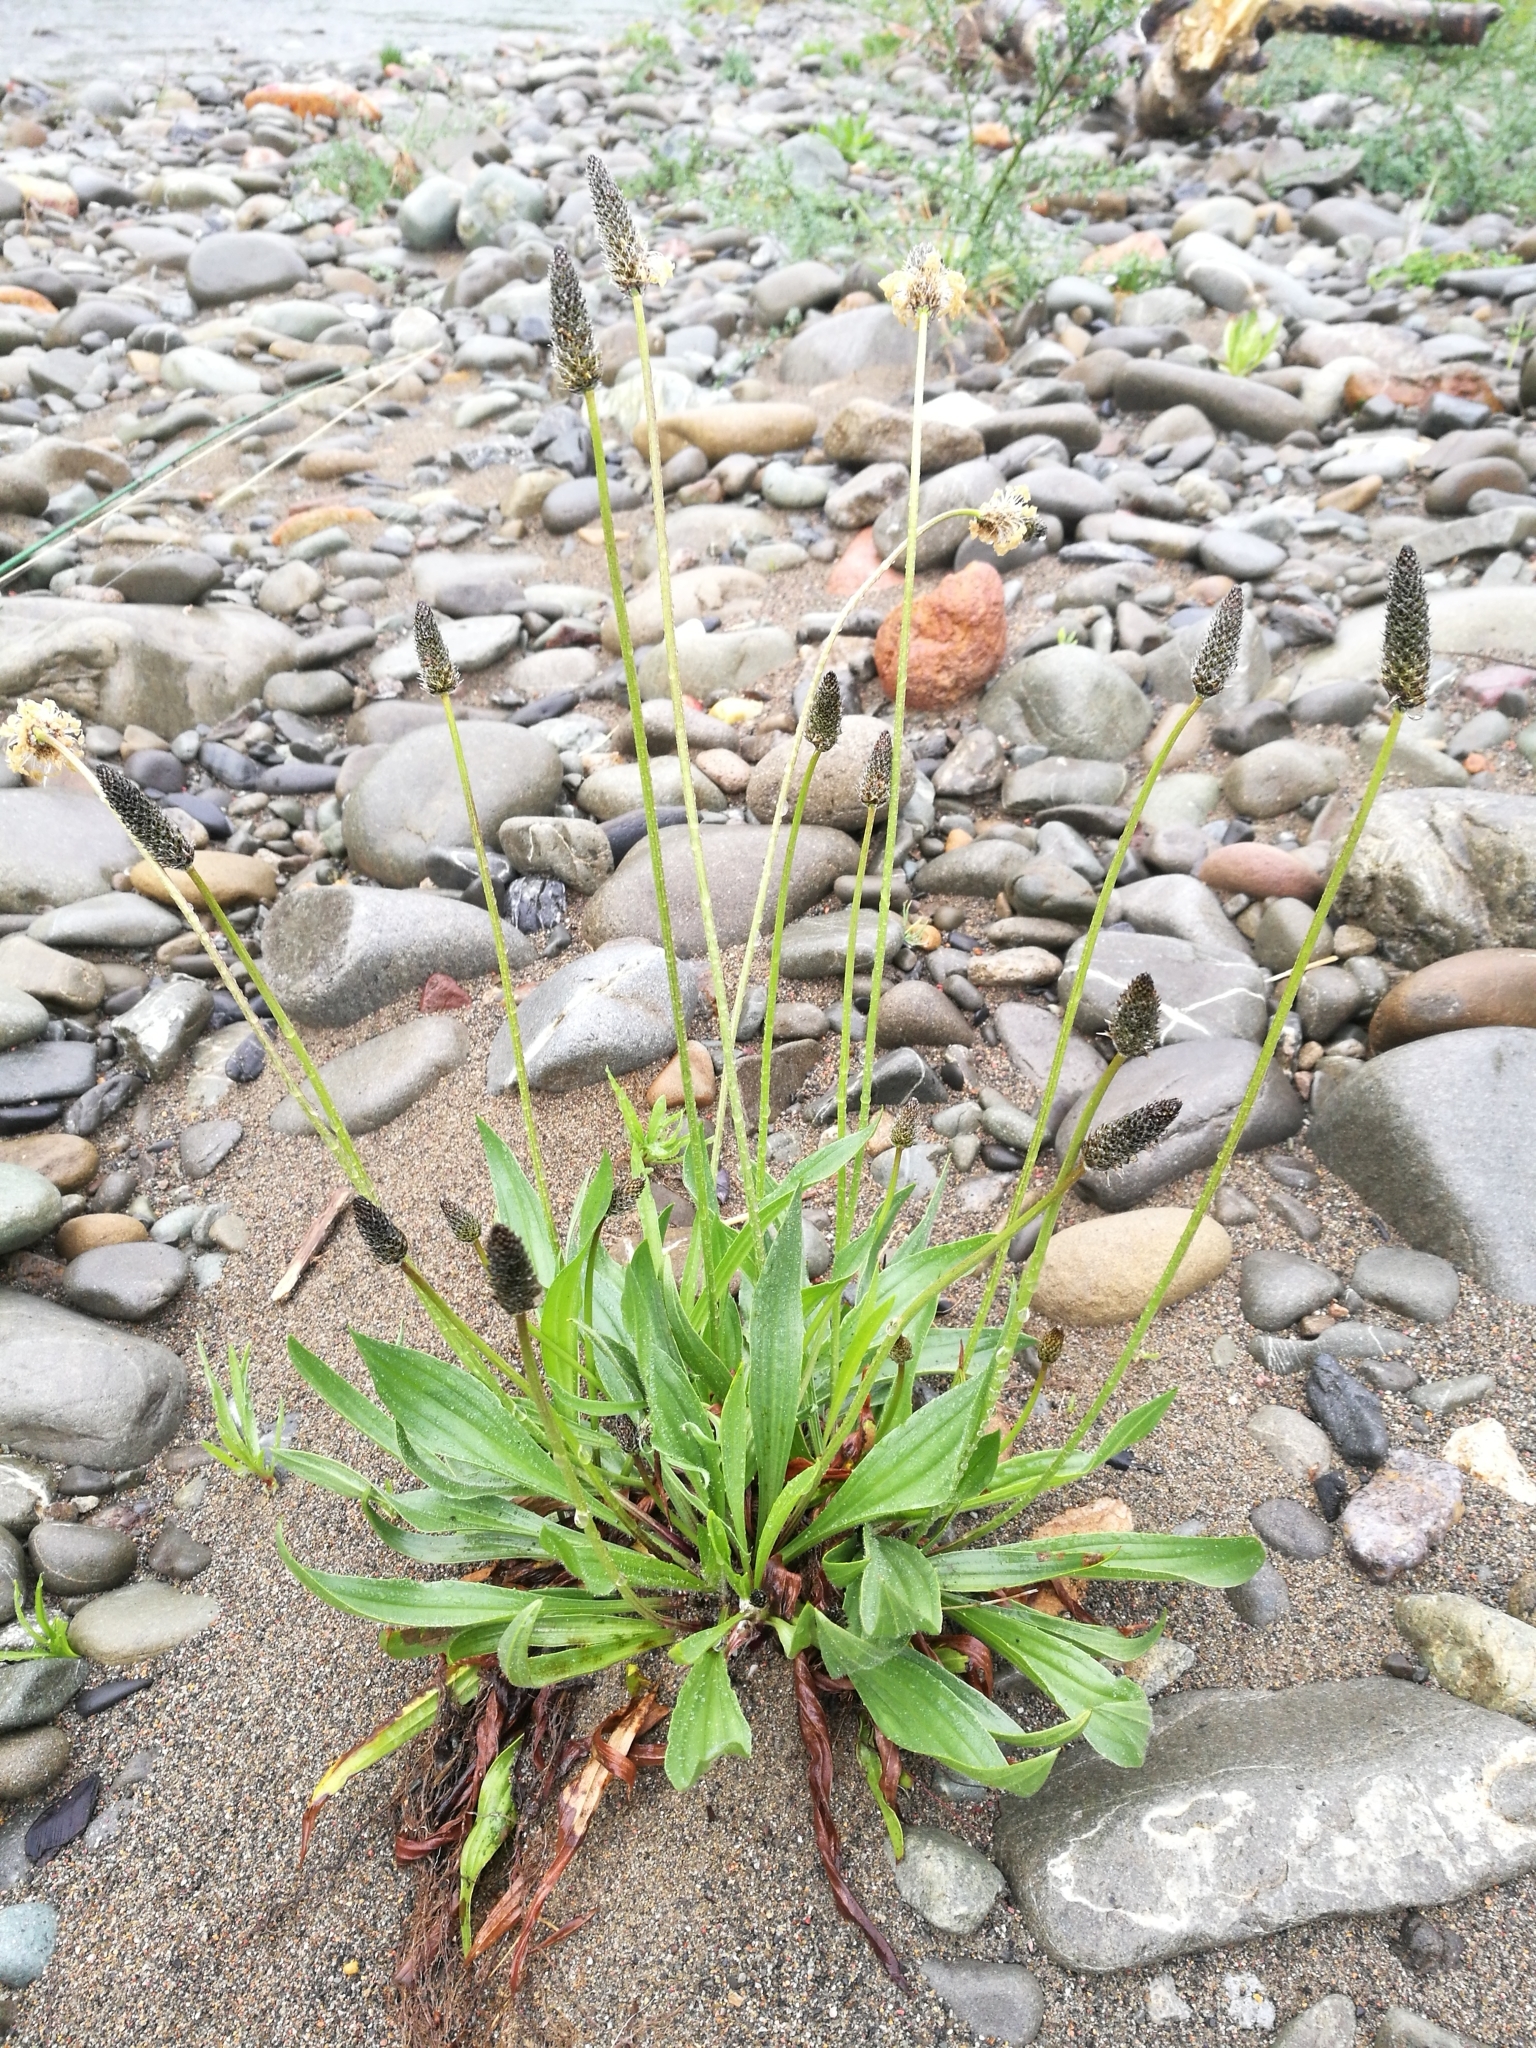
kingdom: Plantae
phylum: Tracheophyta
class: Magnoliopsida
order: Lamiales
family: Plantaginaceae
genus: Plantago
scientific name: Plantago lanceolata
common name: Ribwort plantain
